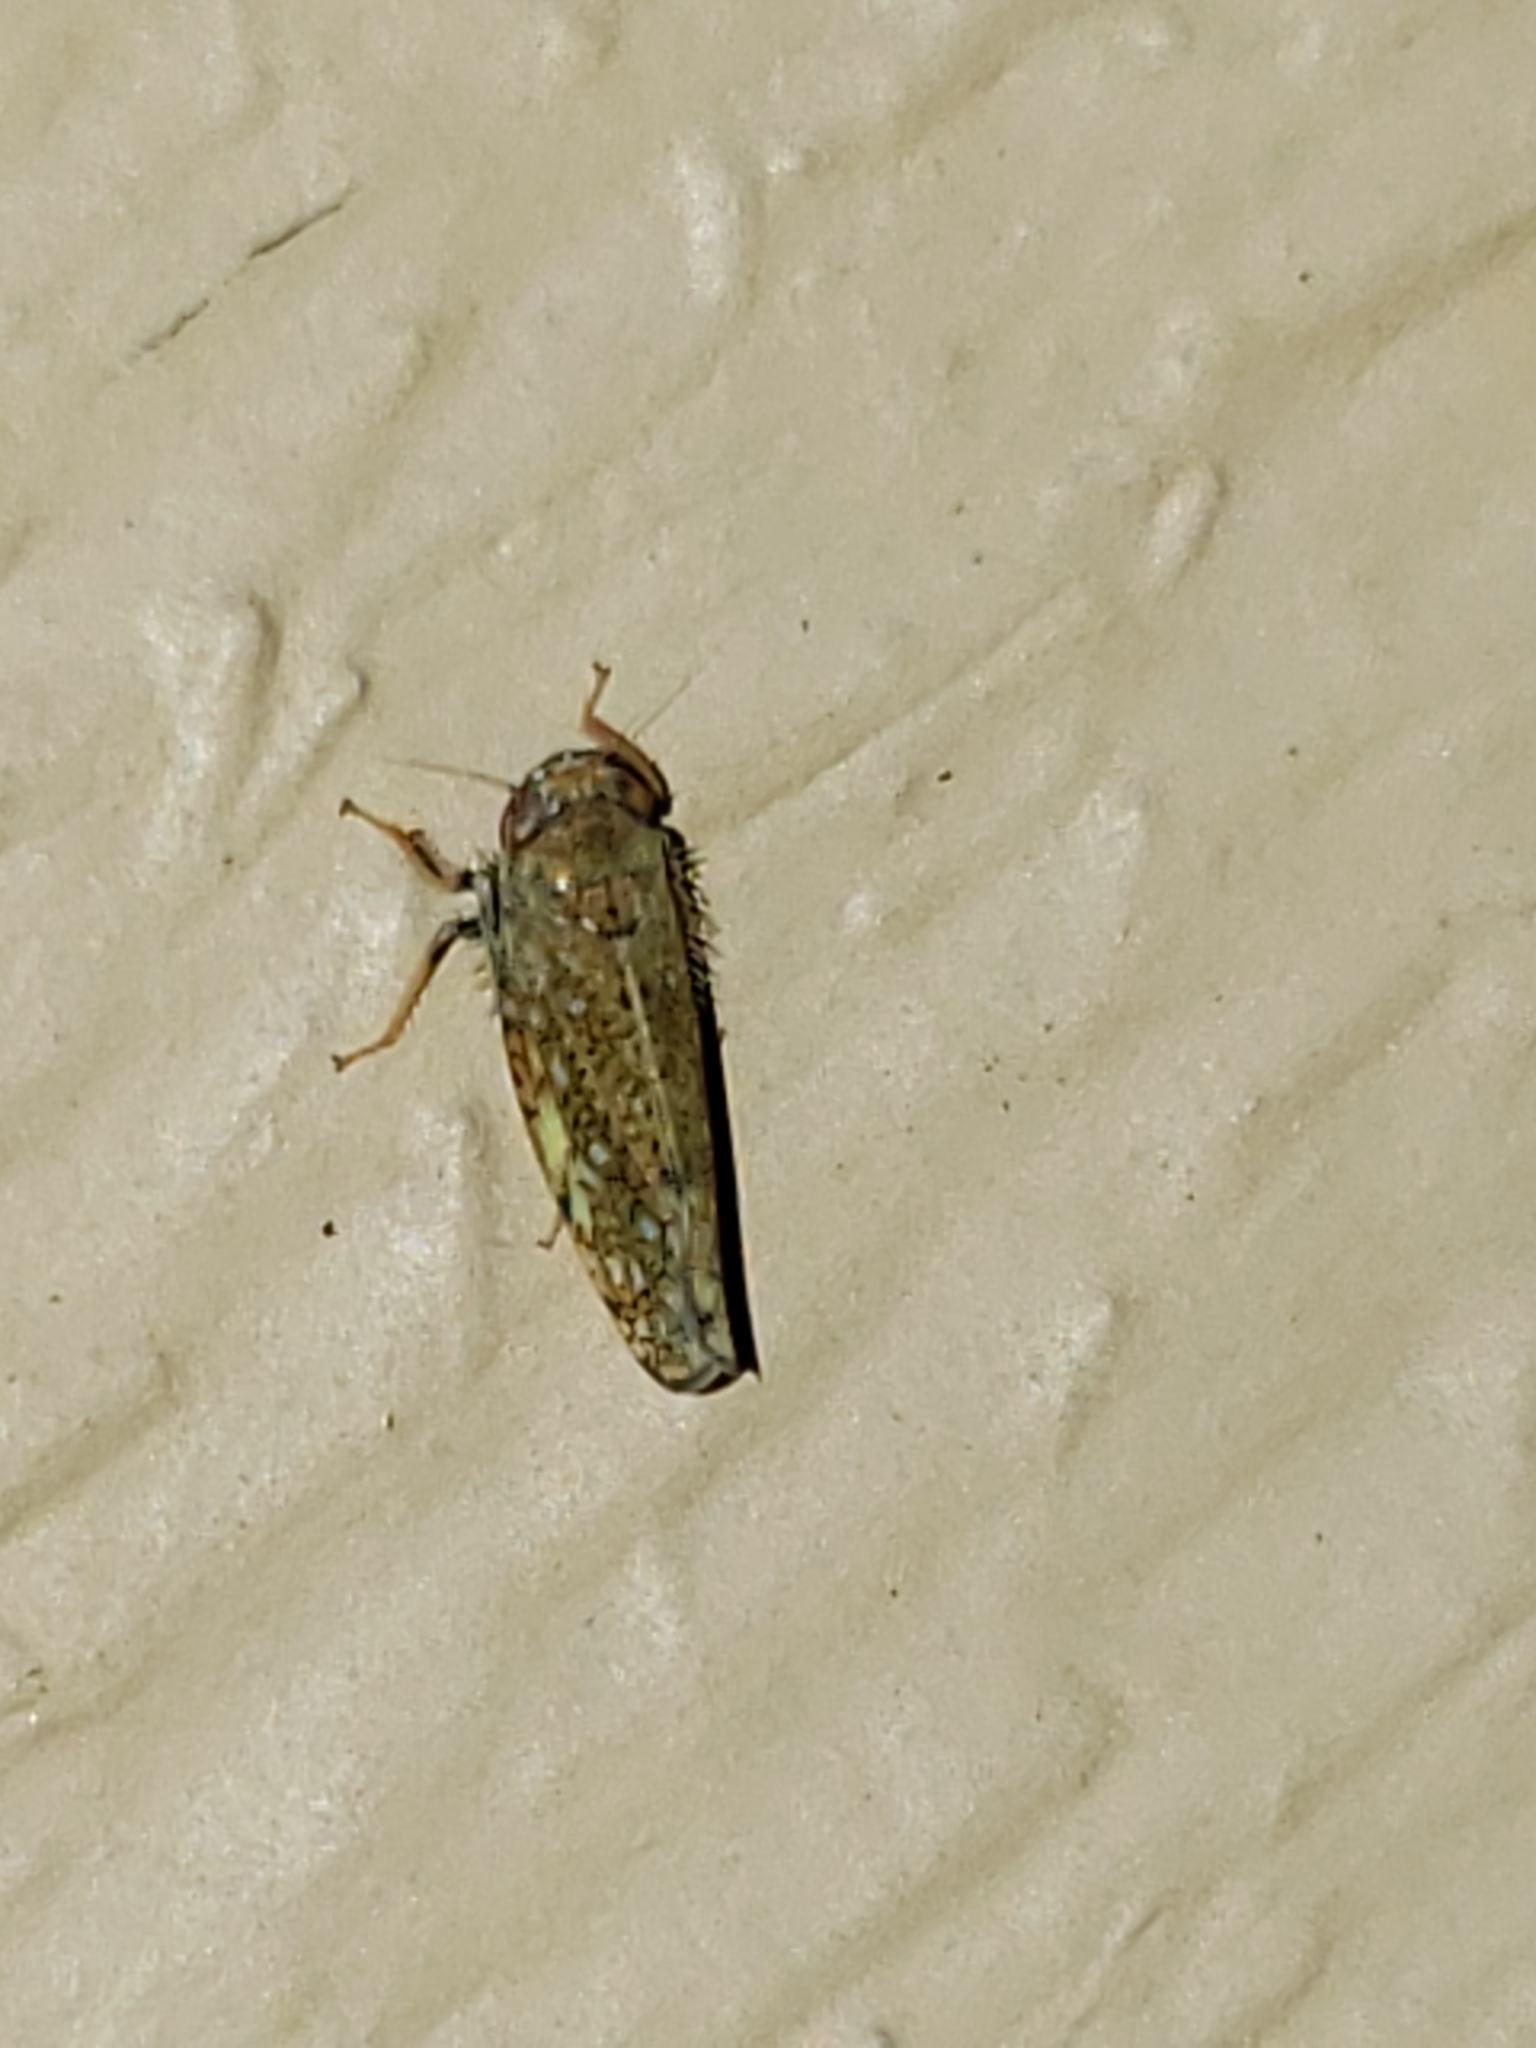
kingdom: Animalia
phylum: Arthropoda
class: Insecta
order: Hemiptera
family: Cicadellidae
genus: Orientus
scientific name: Orientus ishidae
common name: Japanese leafhopper
